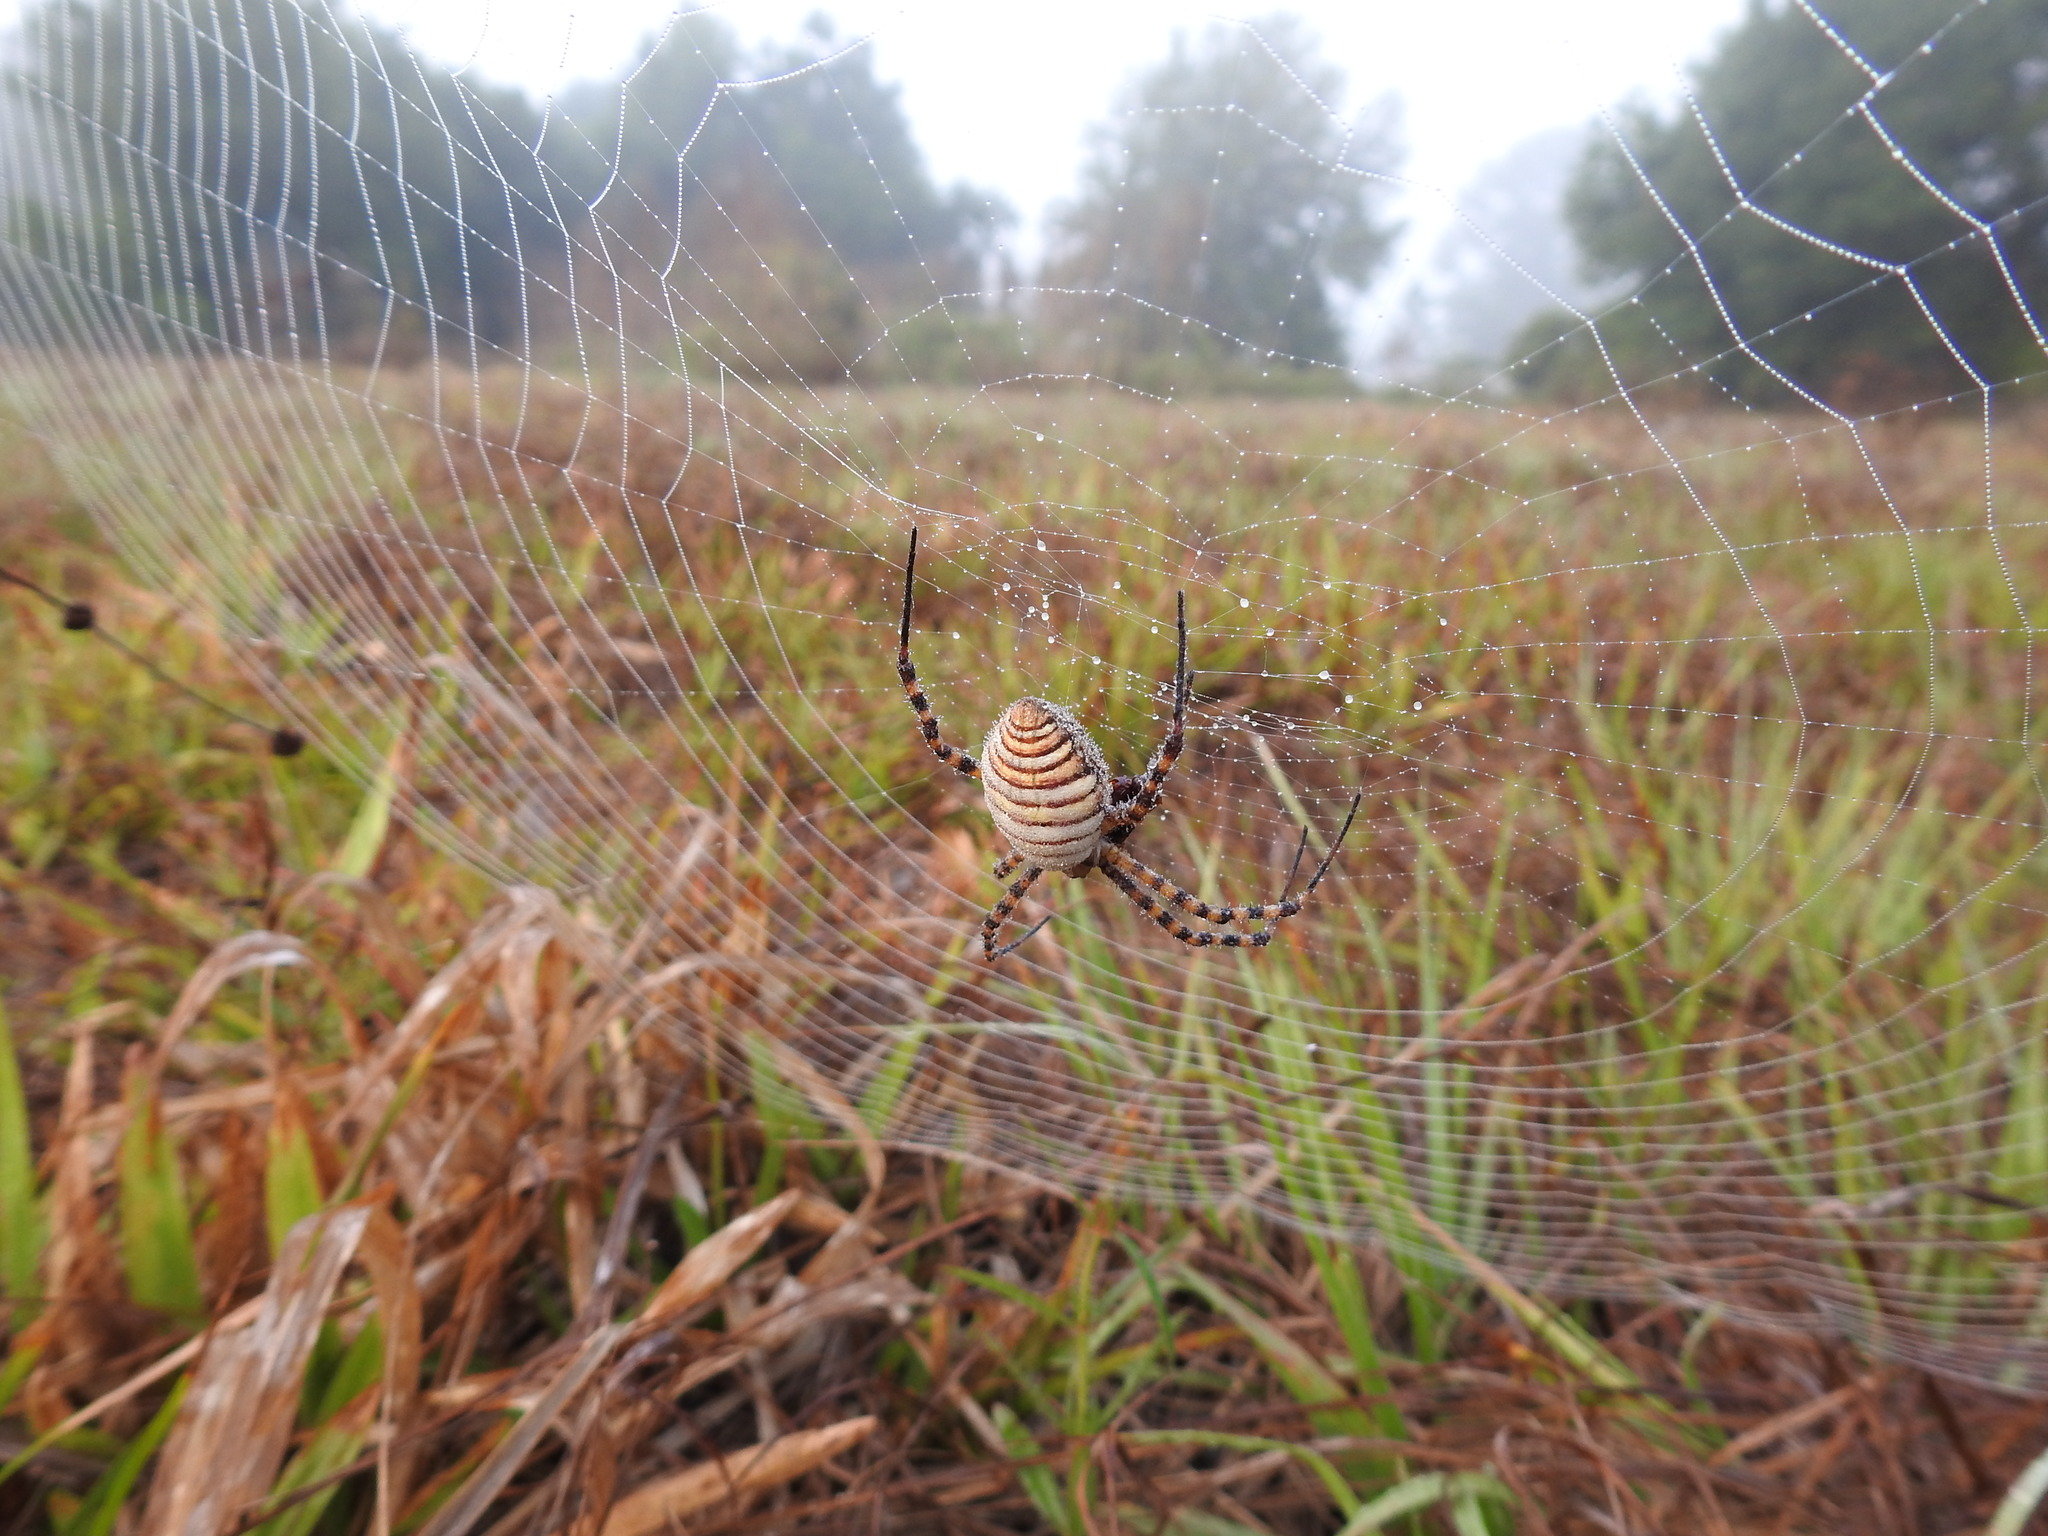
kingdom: Animalia
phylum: Arthropoda
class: Arachnida
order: Araneae
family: Araneidae
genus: Argiope
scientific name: Argiope trifasciata
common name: Banded garden spider
